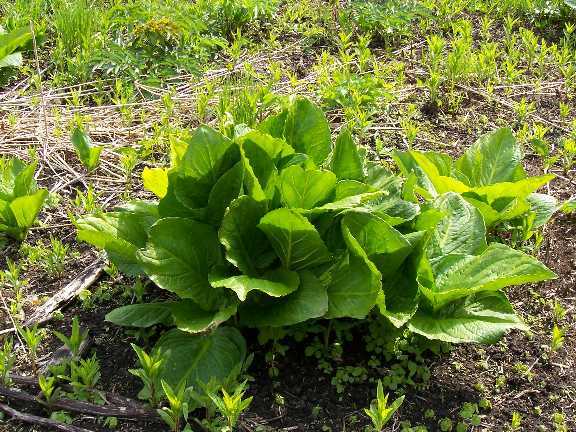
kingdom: Plantae
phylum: Tracheophyta
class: Liliopsida
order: Alismatales
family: Araceae
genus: Symplocarpus
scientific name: Symplocarpus foetidus
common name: Eastern skunk cabbage
